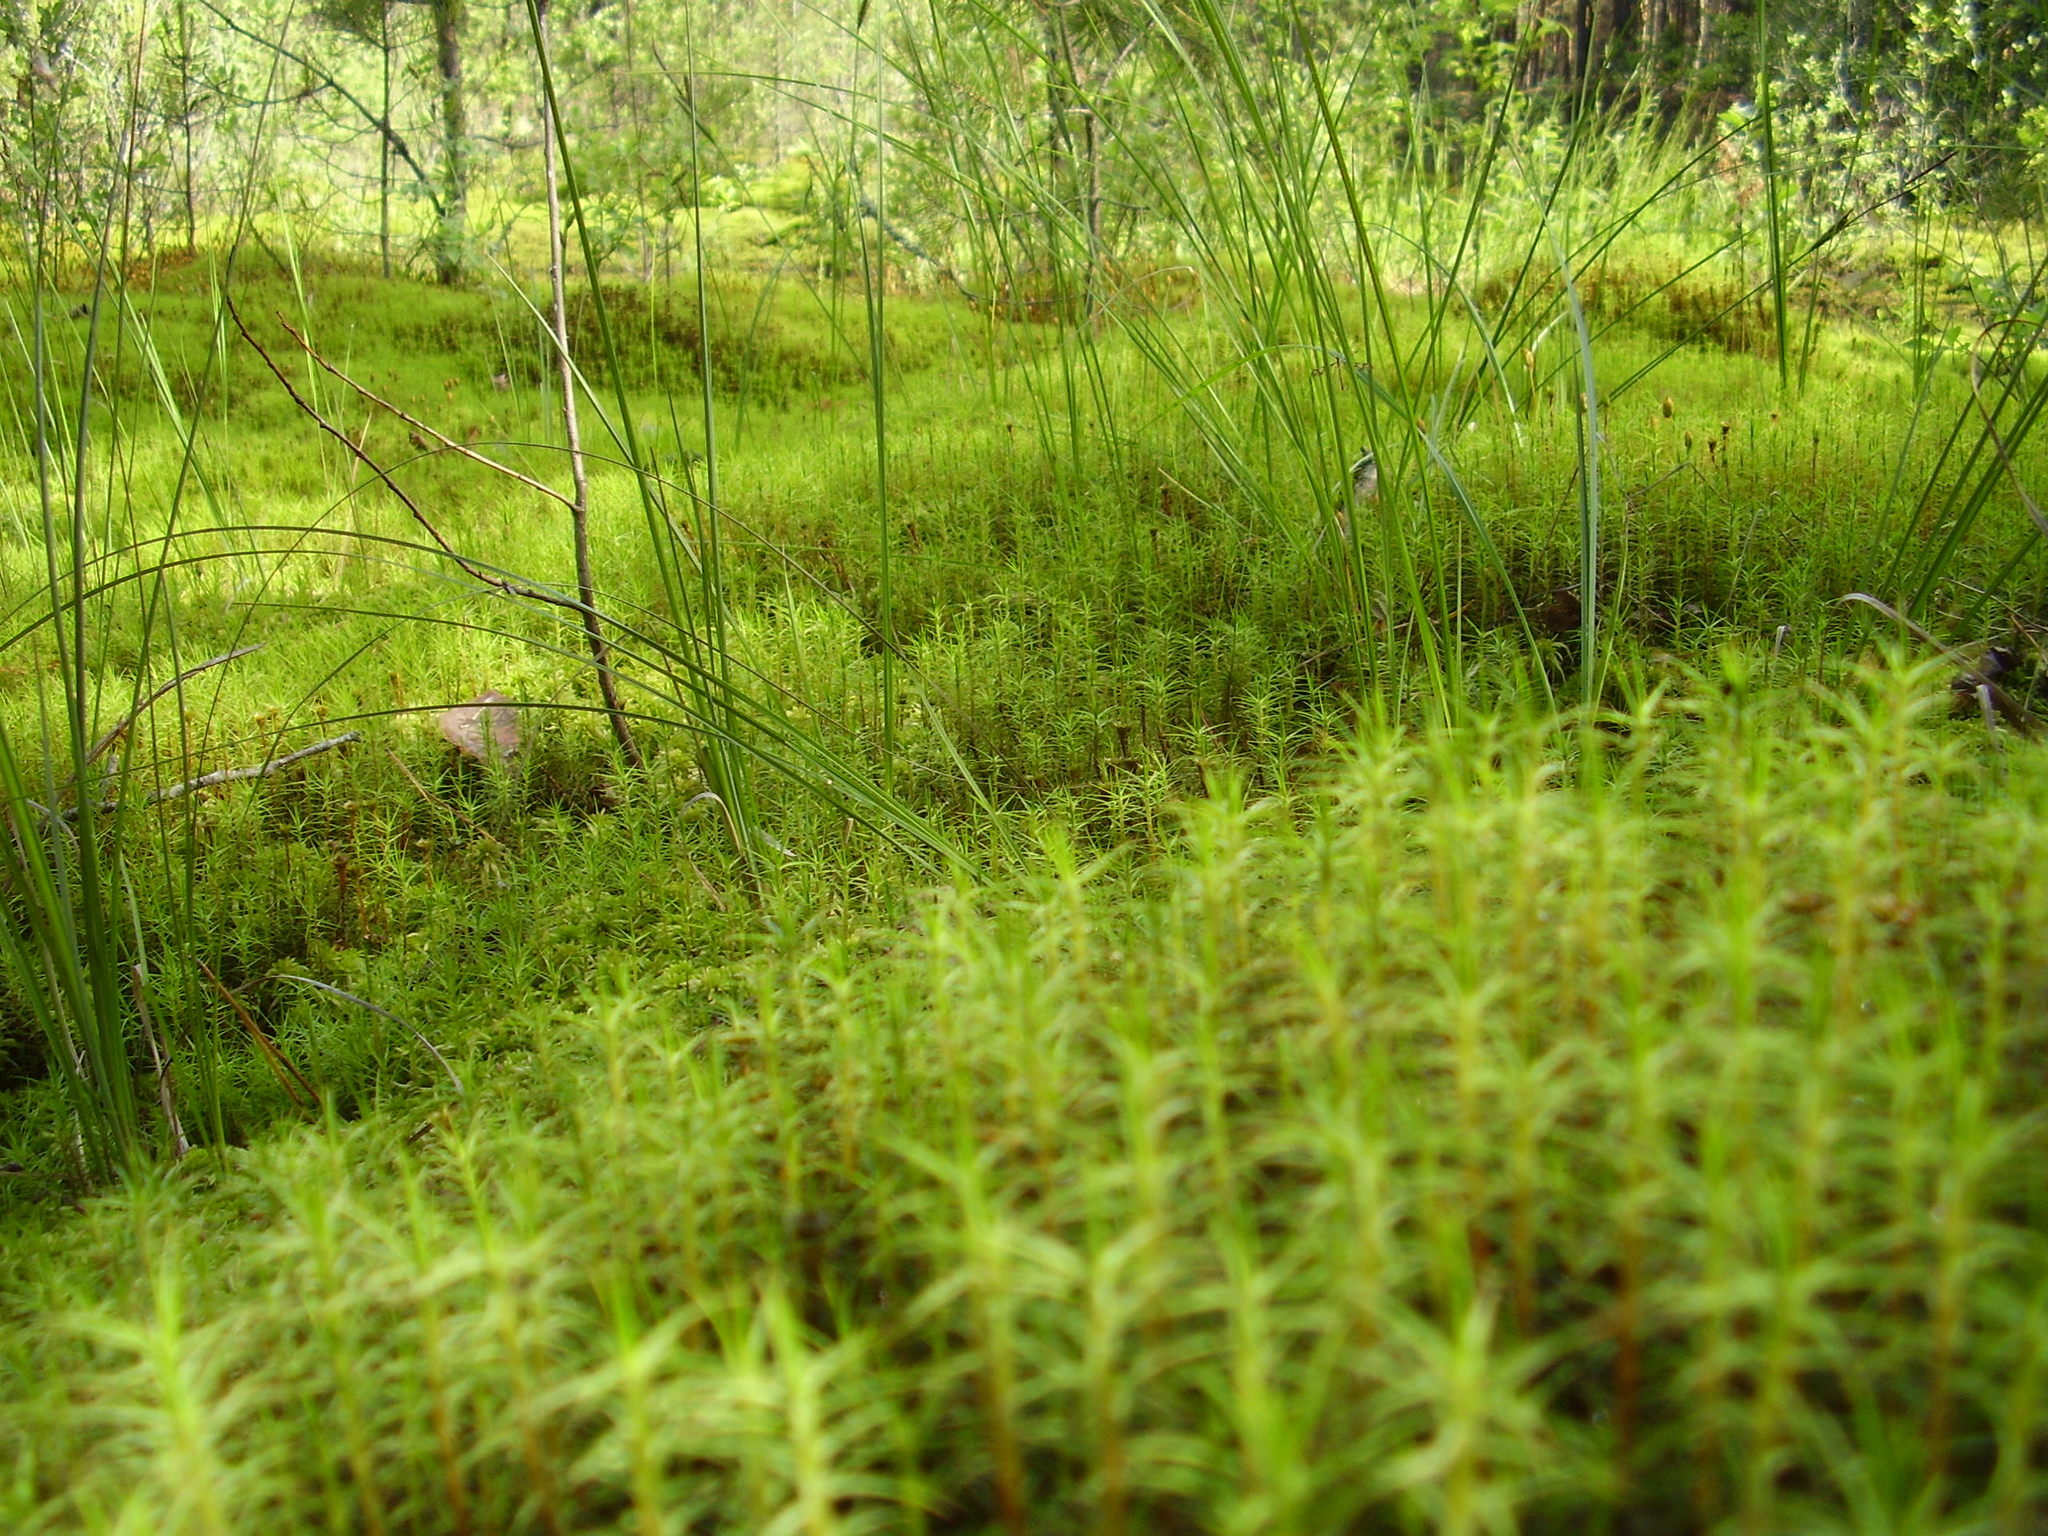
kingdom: Plantae
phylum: Bryophyta
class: Polytrichopsida
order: Polytrichales
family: Polytrichaceae
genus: Polytrichum
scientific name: Polytrichum commune
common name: Common haircap
